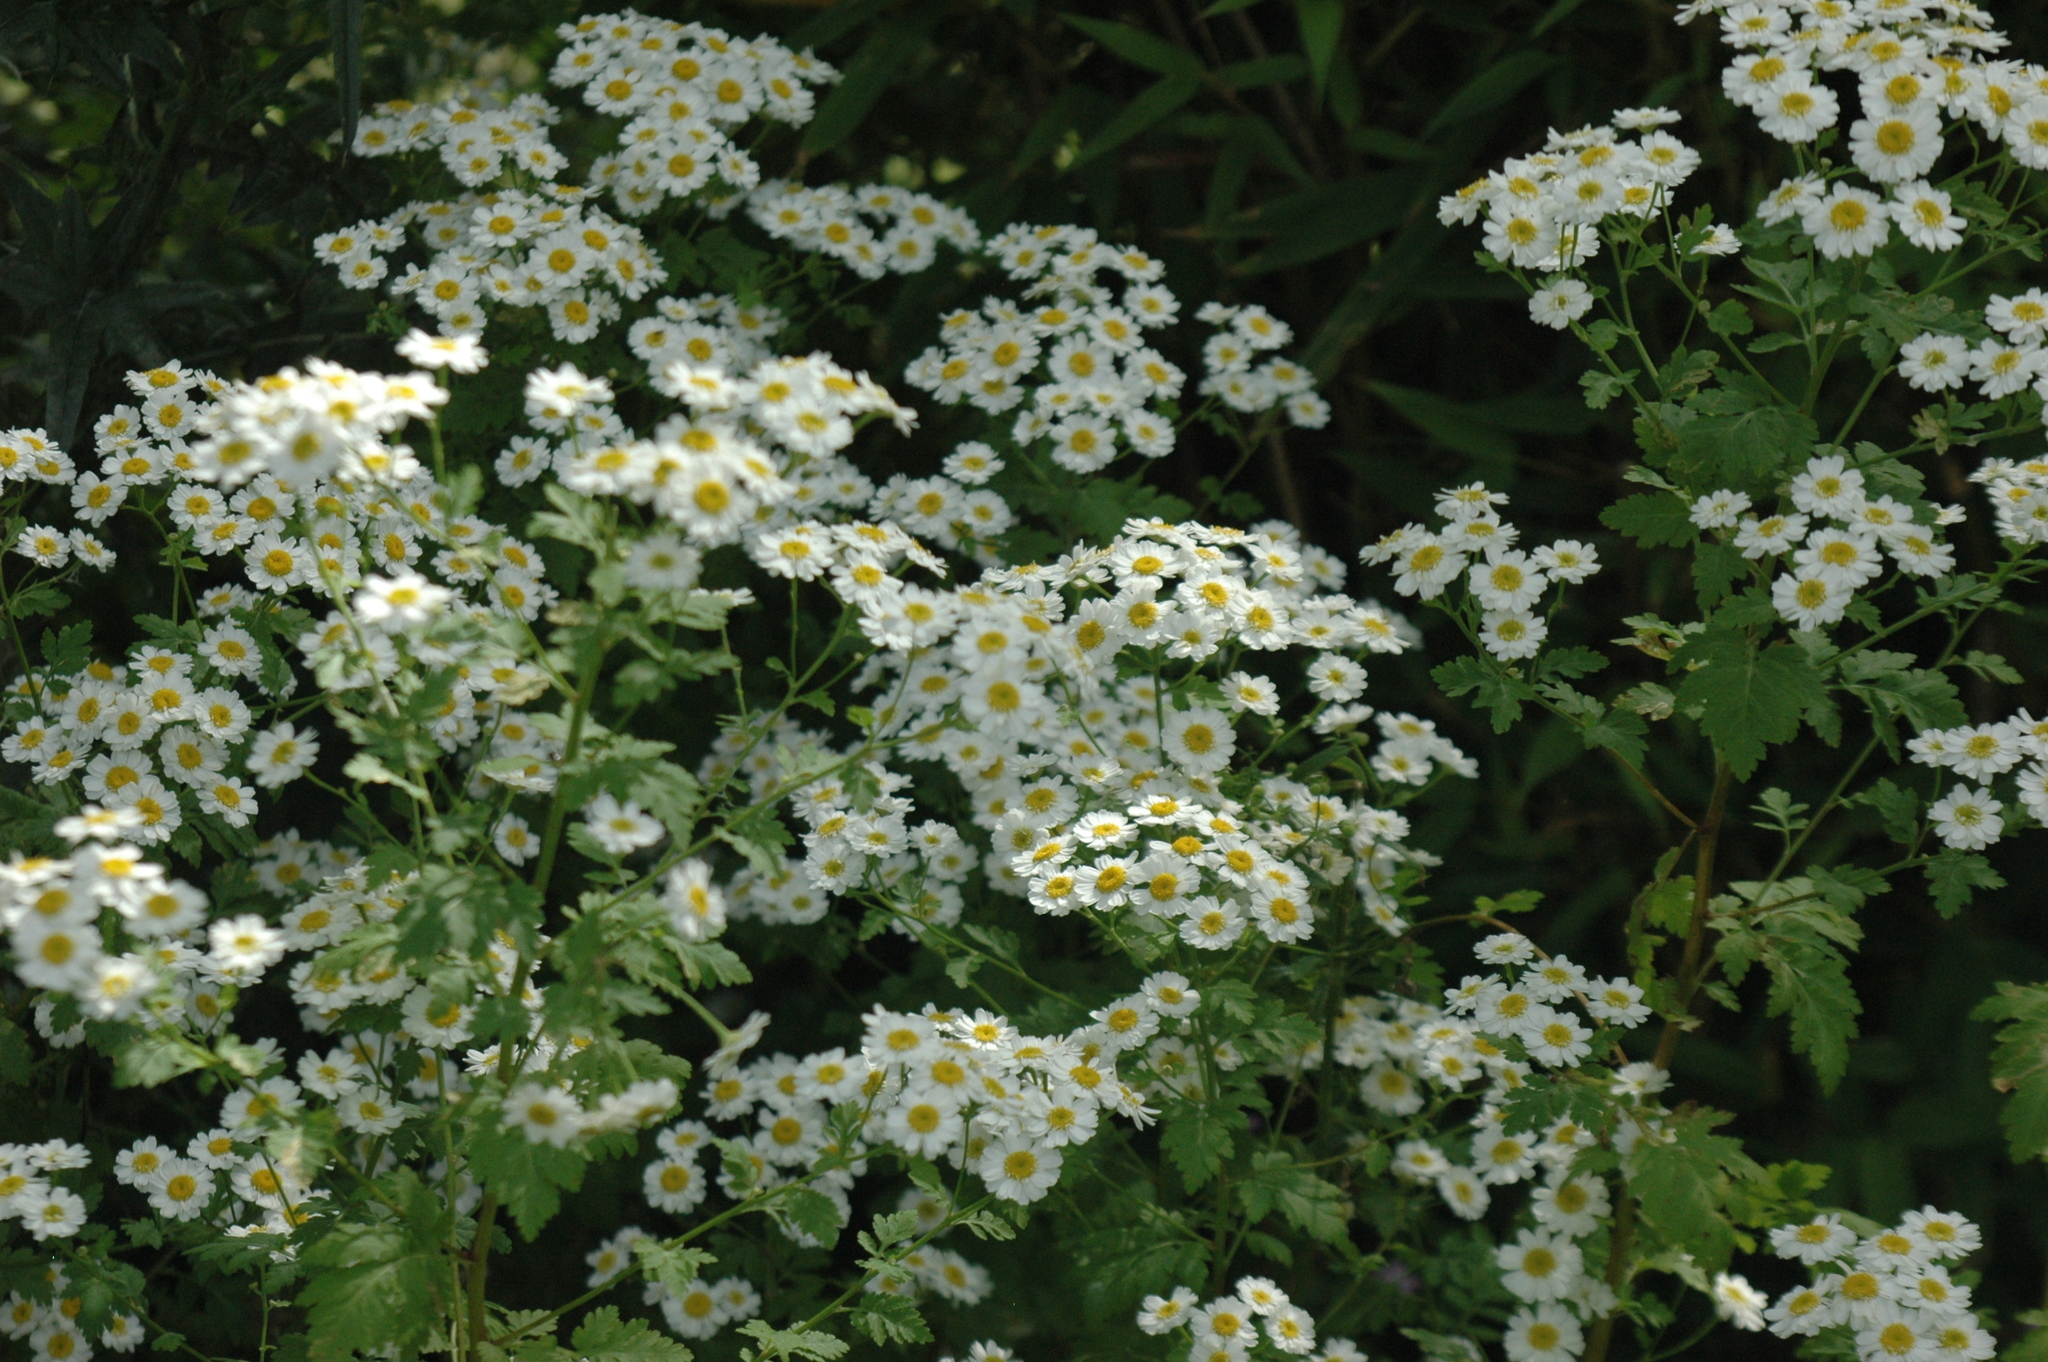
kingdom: Plantae
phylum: Tracheophyta
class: Magnoliopsida
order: Asterales
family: Asteraceae
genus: Tanacetum
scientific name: Tanacetum parthenium
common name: Feverfew
